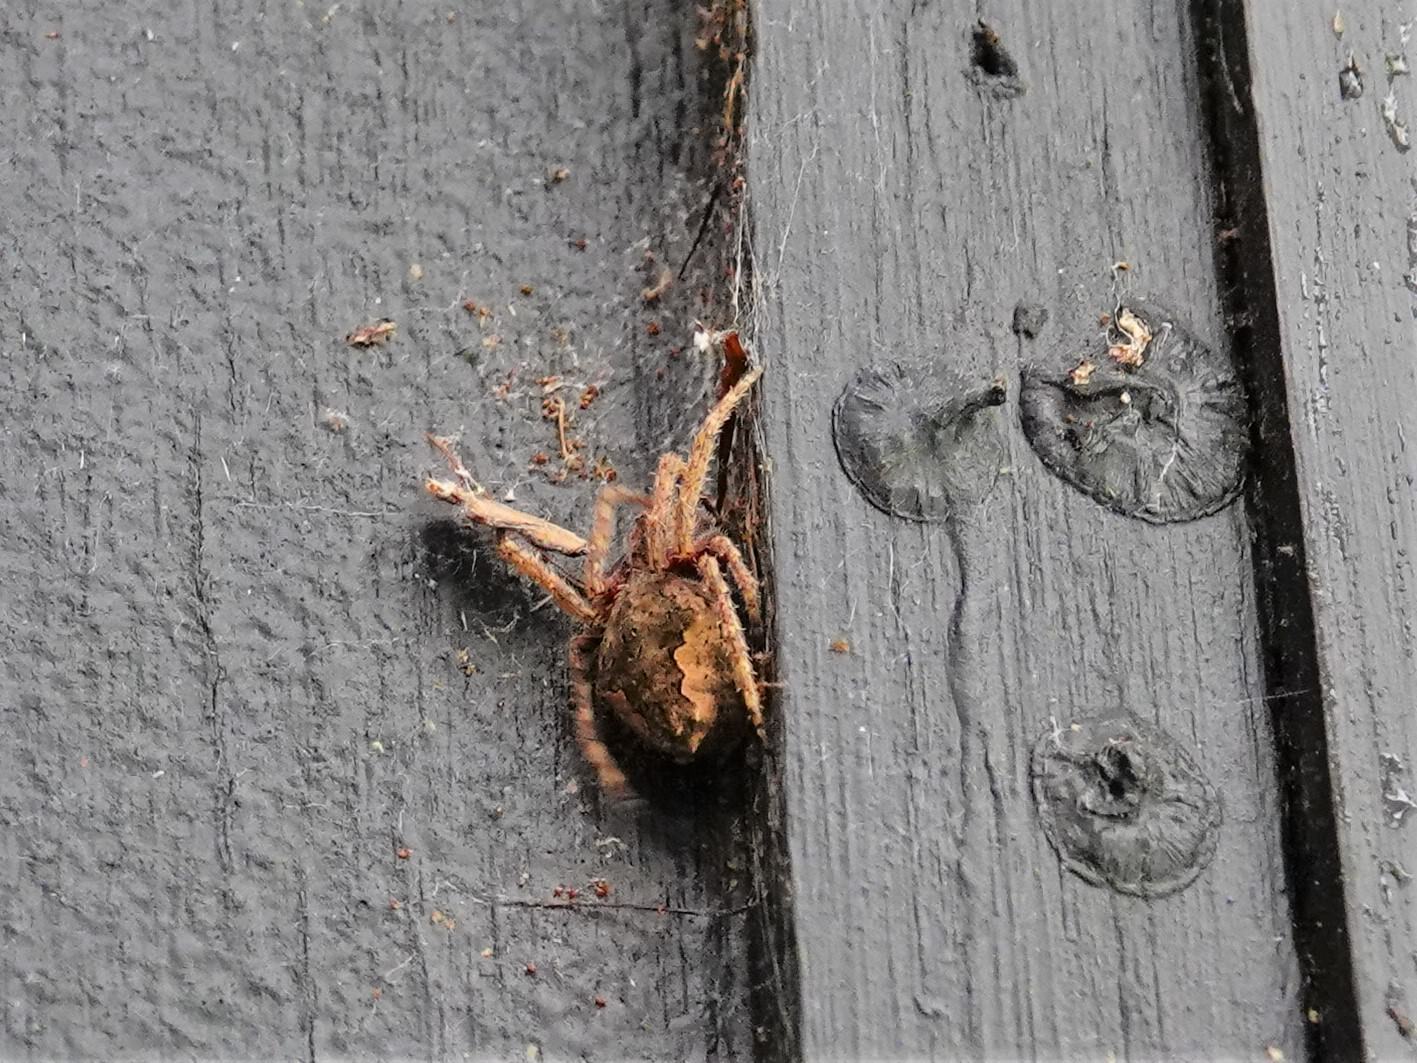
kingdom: Animalia
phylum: Arthropoda
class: Arachnida
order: Araneae
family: Araneidae
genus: Eriophora
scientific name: Eriophora pustulosa
